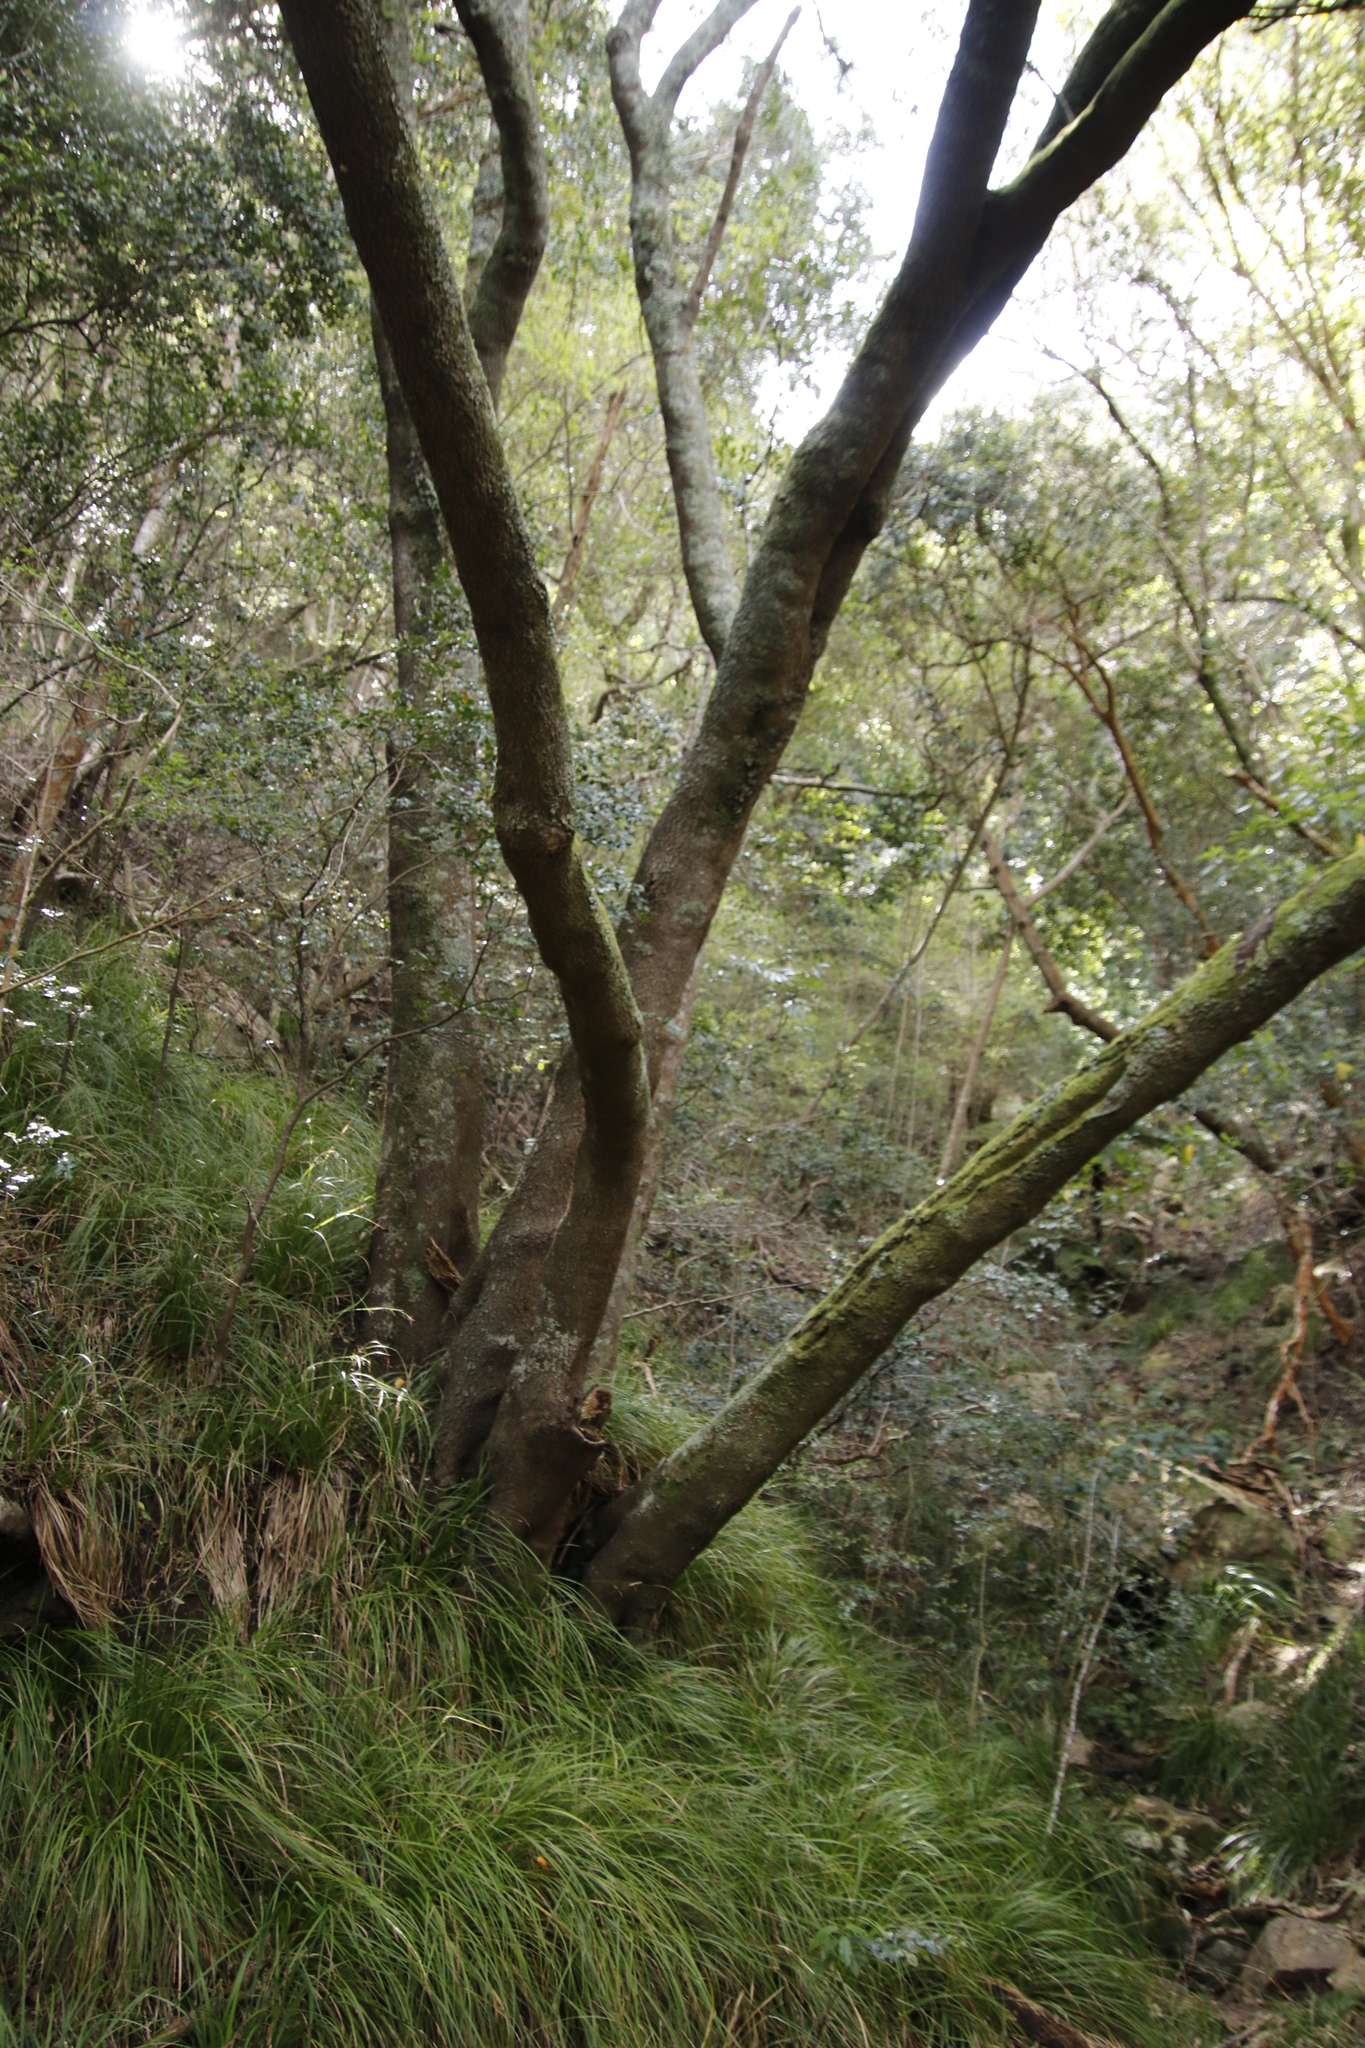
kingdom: Plantae
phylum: Tracheophyta
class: Magnoliopsida
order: Oxalidales
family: Cunoniaceae
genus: Cunonia
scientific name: Cunonia capensis
